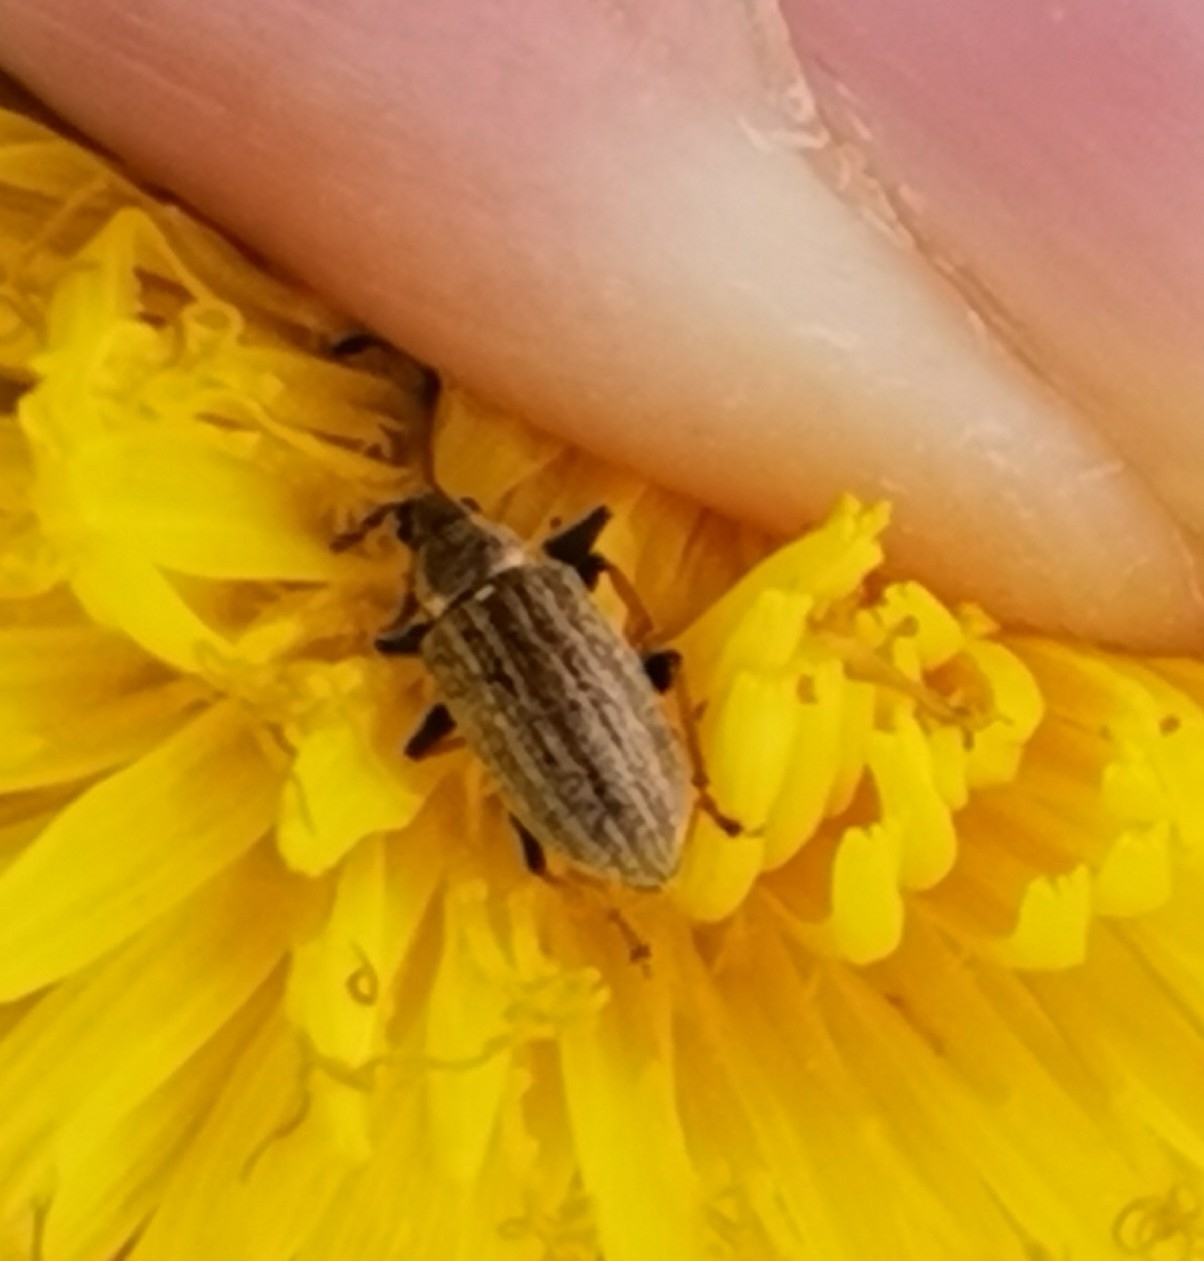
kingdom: Animalia
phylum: Arthropoda
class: Insecta
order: Coleoptera
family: Curculionidae
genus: Phyllobius
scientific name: Phyllobius pyri
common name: Common leaf weevil
